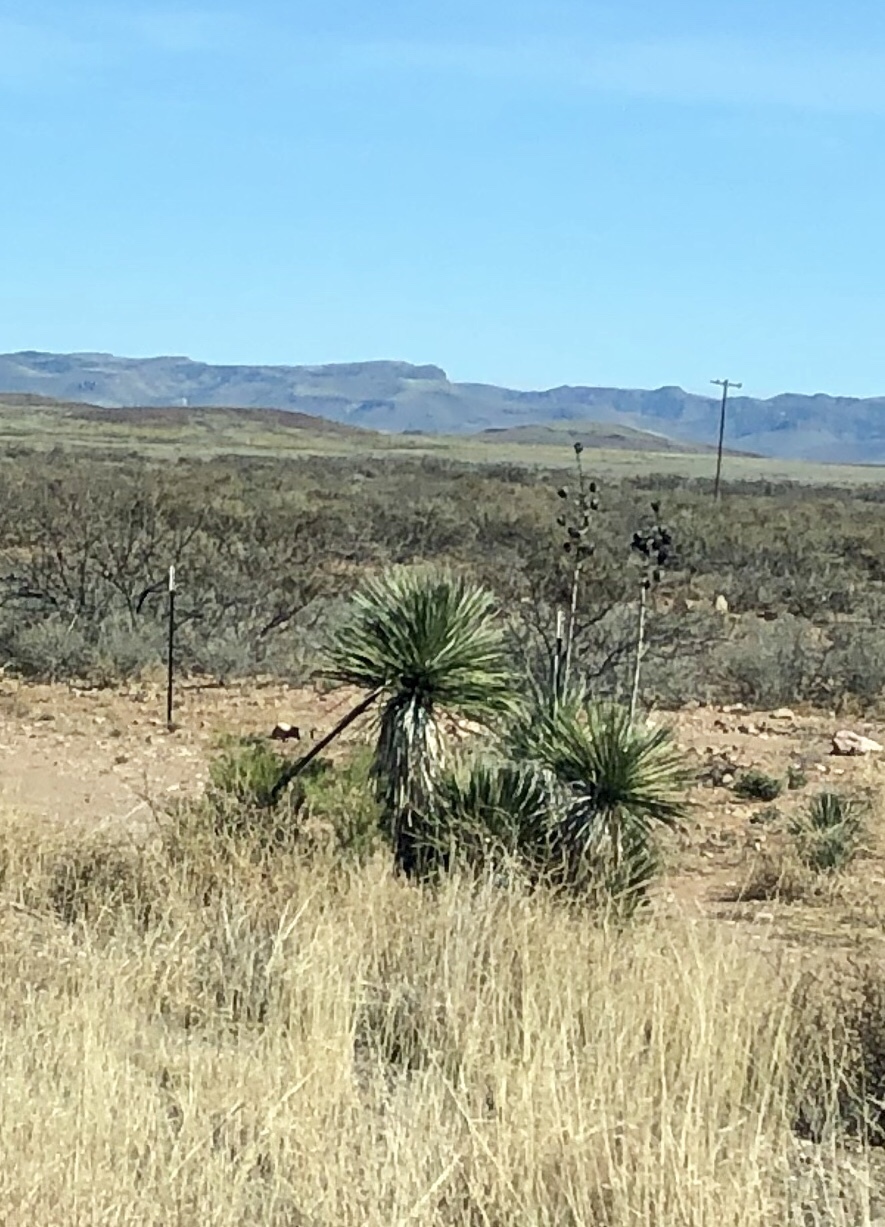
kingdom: Plantae
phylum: Tracheophyta
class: Liliopsida
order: Asparagales
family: Asparagaceae
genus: Yucca
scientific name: Yucca elata
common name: Palmella
